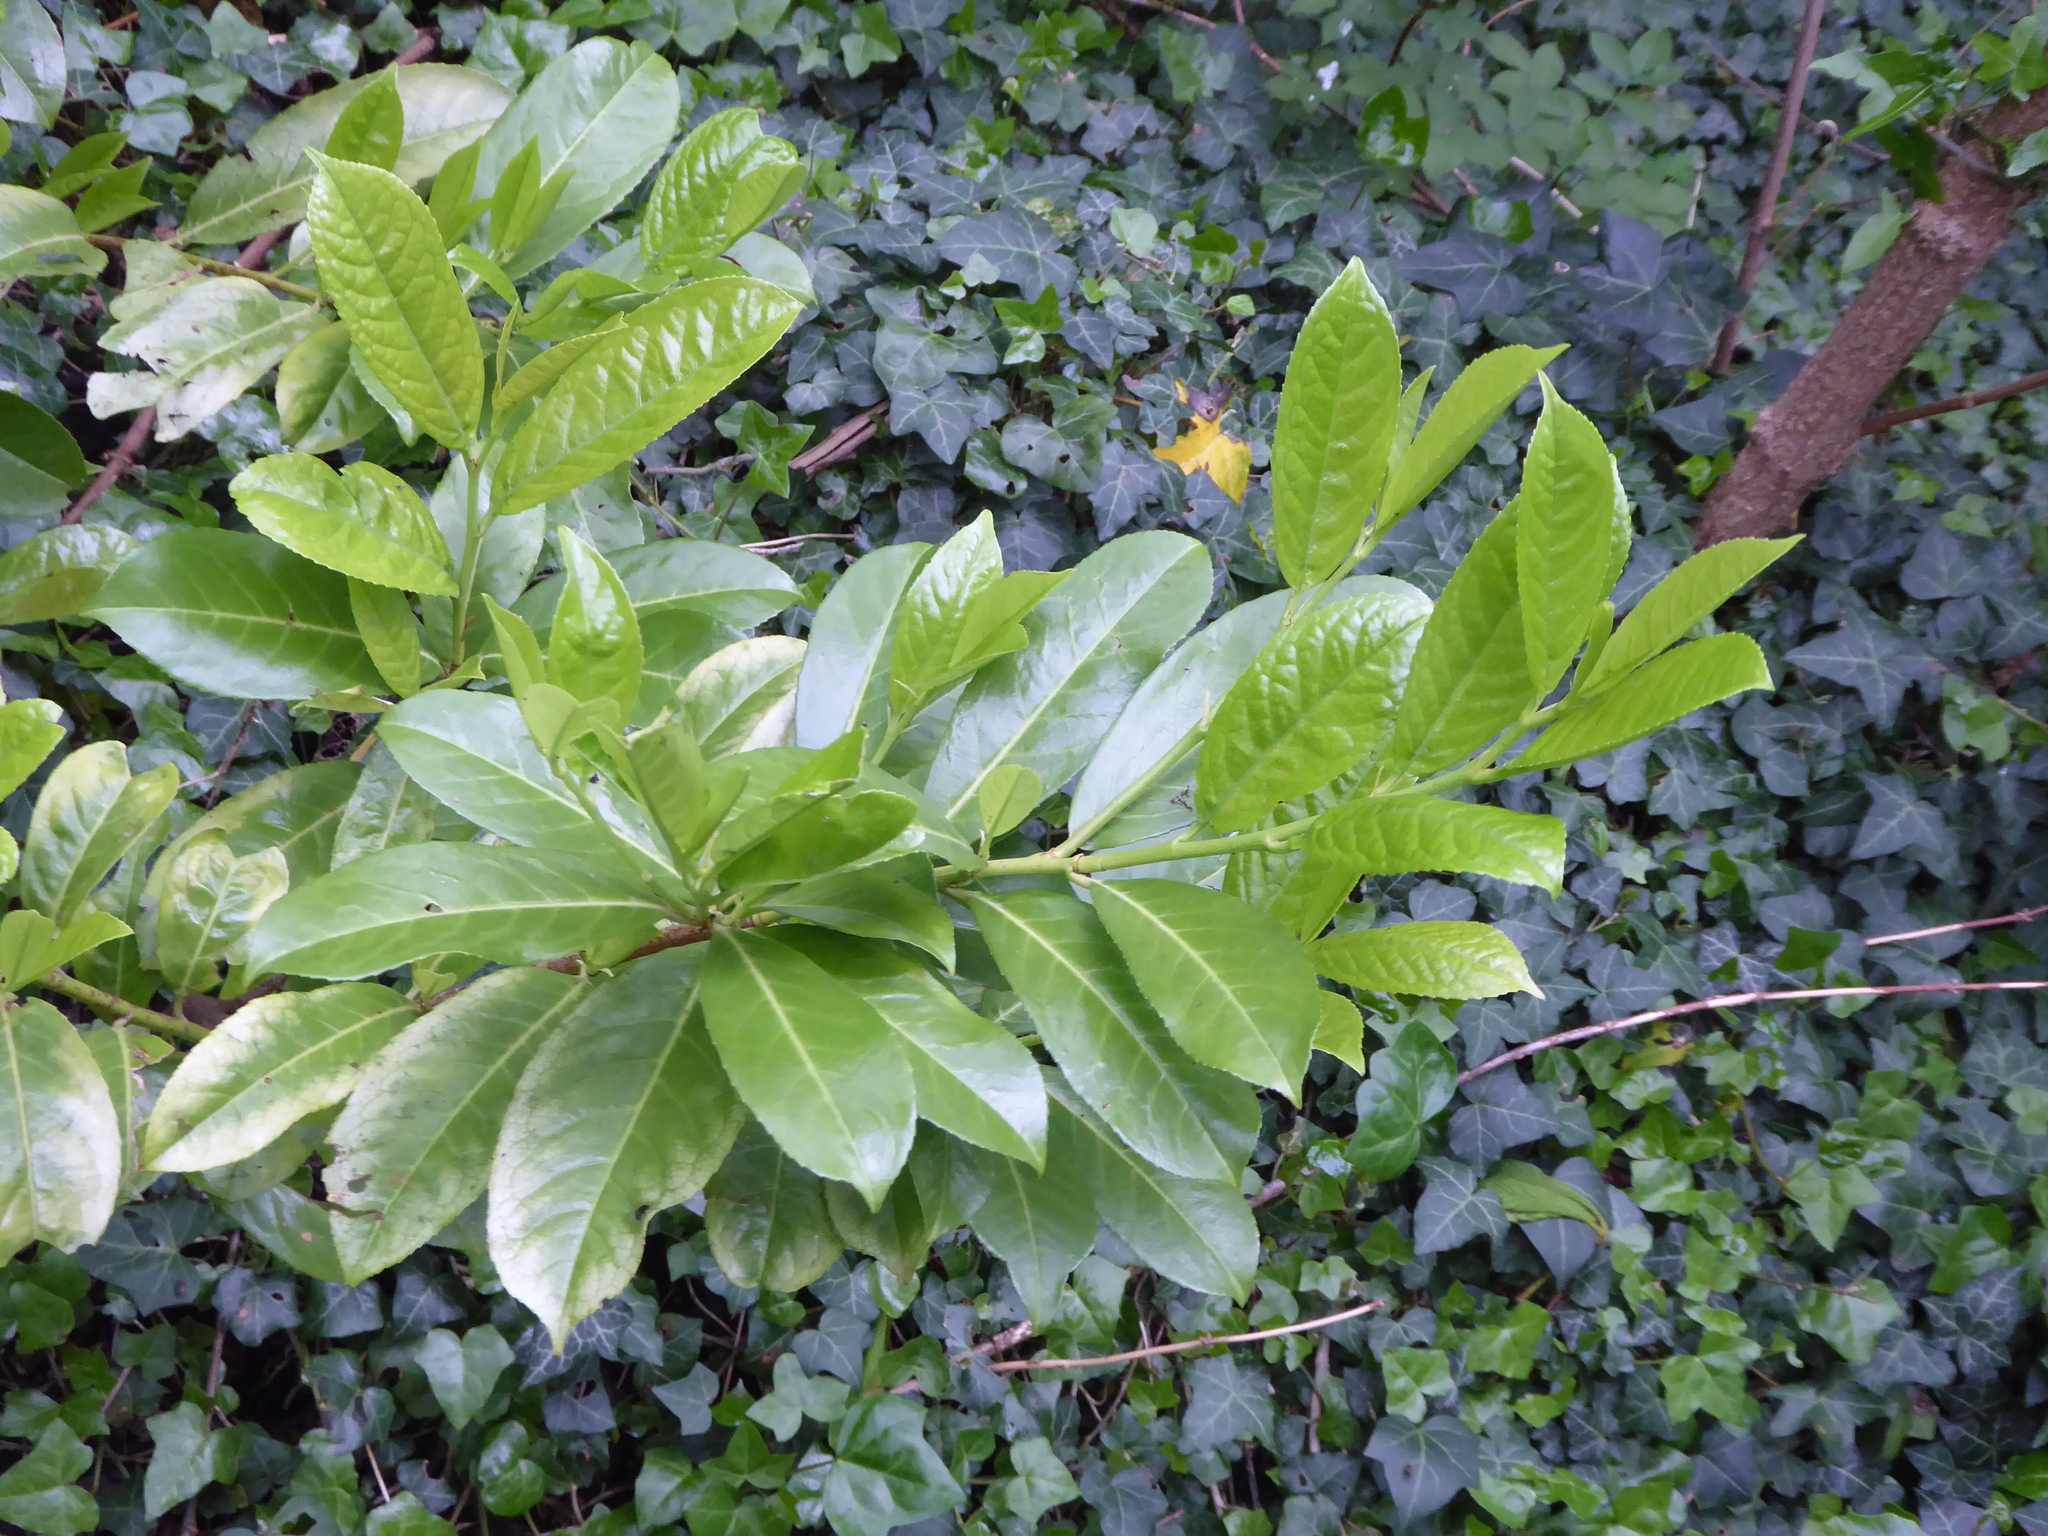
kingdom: Plantae
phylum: Tracheophyta
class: Magnoliopsida
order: Rosales
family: Rosaceae
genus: Prunus
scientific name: Prunus laurocerasus
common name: Cherry laurel
